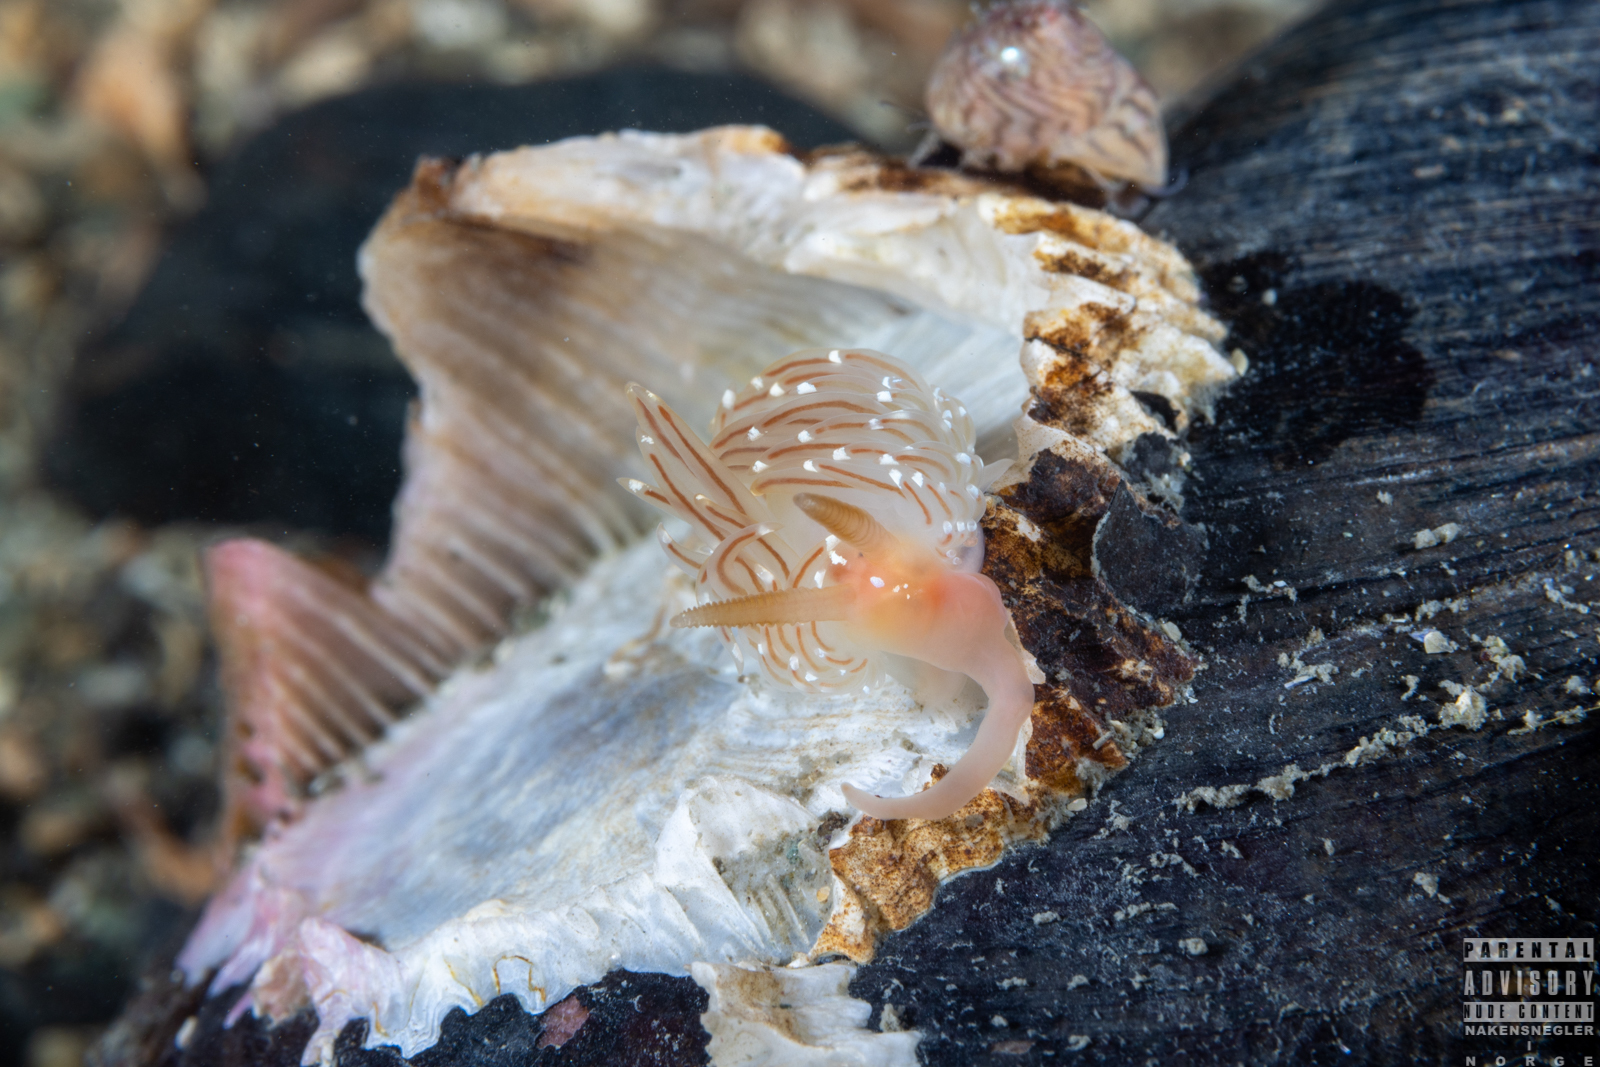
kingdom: Animalia
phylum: Mollusca
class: Gastropoda
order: Nudibranchia
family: Facelinidae
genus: Facelina
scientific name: Facelina bostoniensis
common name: Boston facelina
